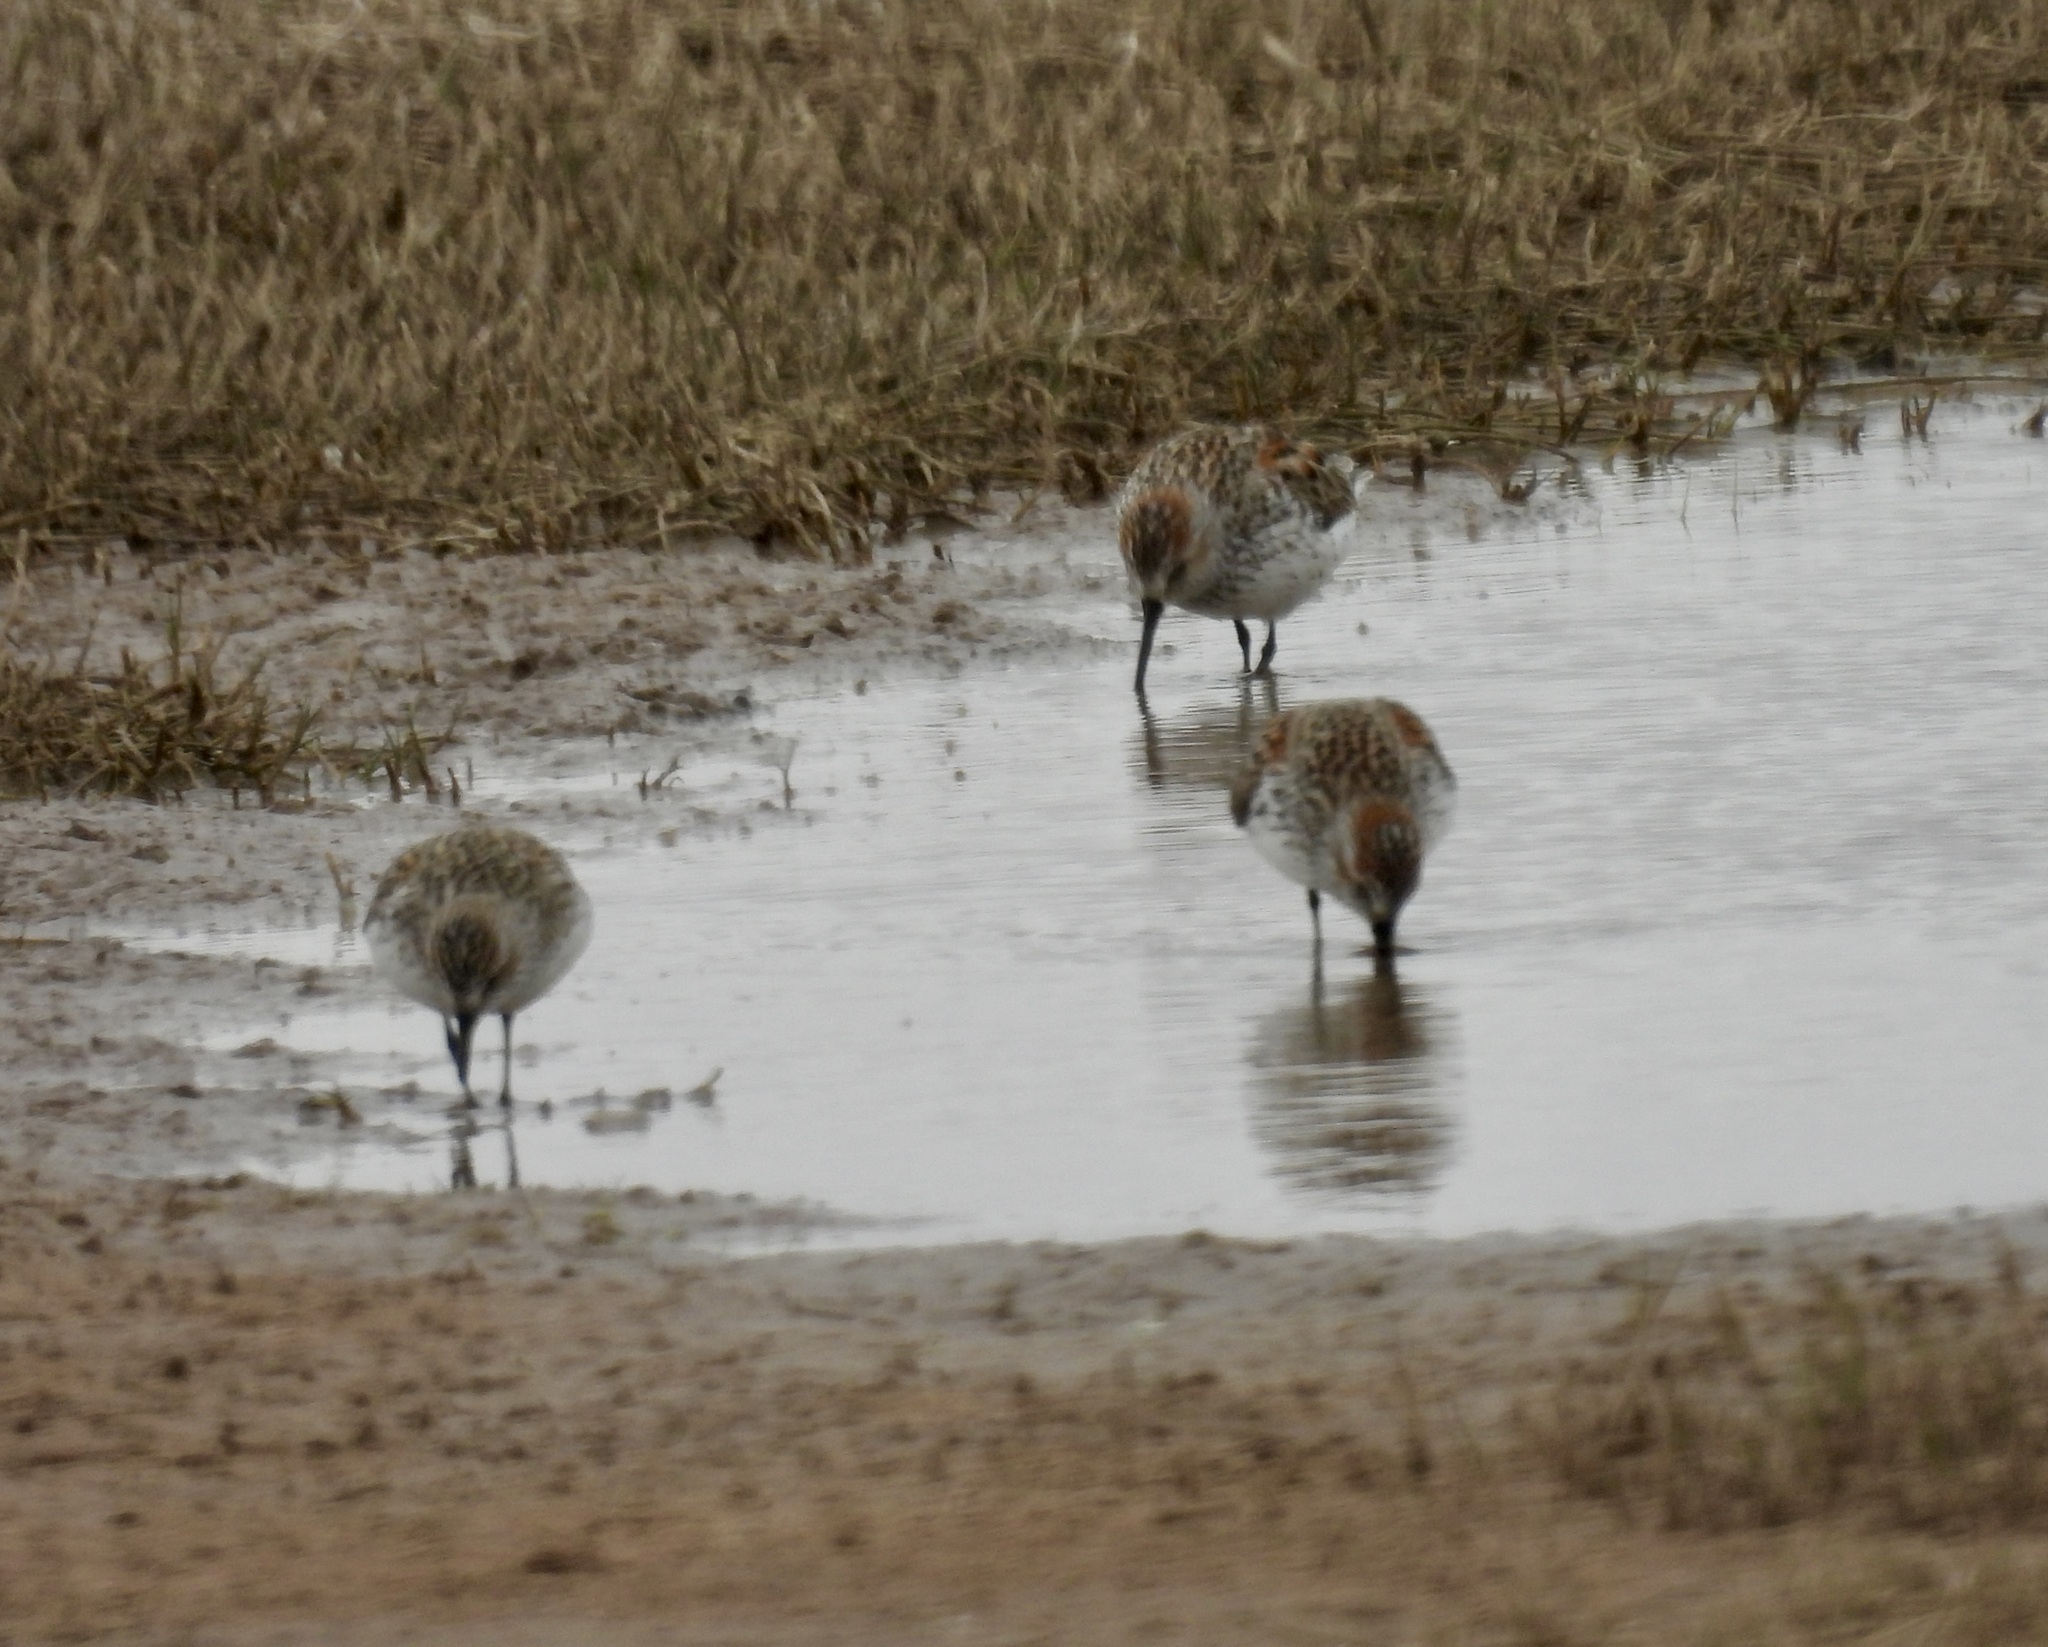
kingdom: Animalia
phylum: Chordata
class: Aves
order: Charadriiformes
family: Scolopacidae
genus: Calidris
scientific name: Calidris mauri
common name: Western sandpiper
